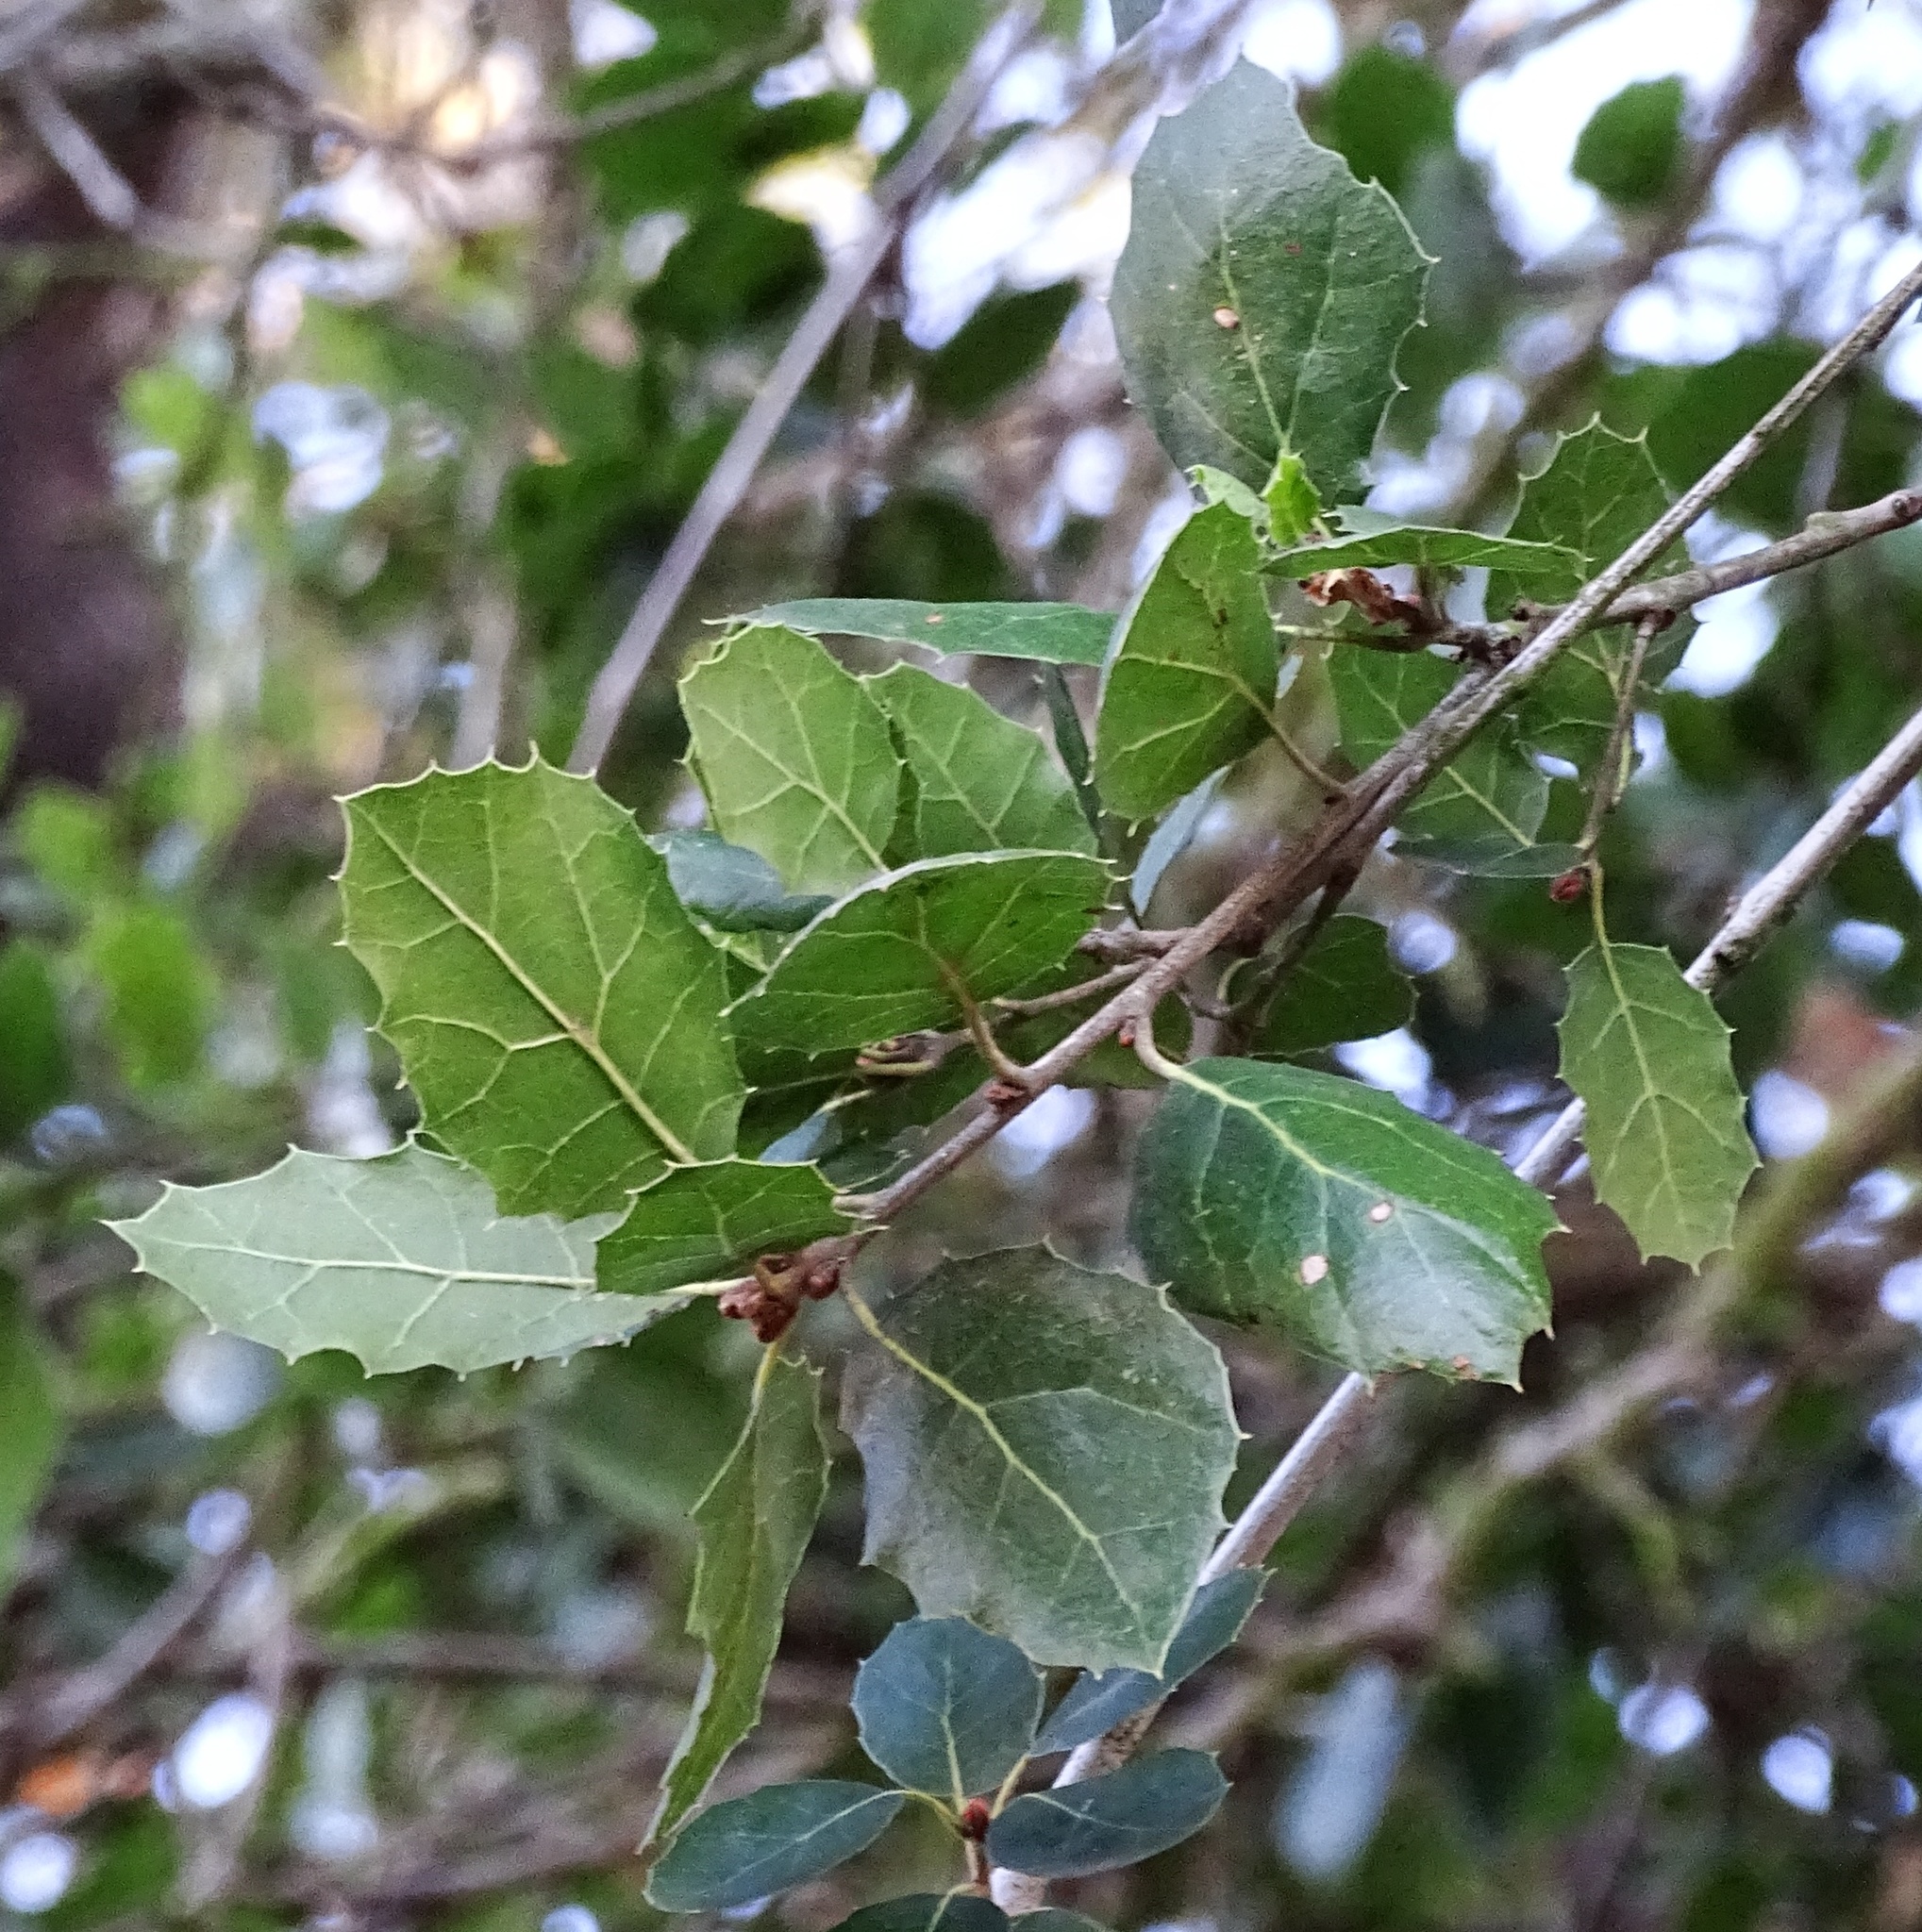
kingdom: Plantae
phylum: Tracheophyta
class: Magnoliopsida
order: Fagales
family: Fagaceae
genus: Quercus
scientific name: Quercus agrifolia
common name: California live oak
